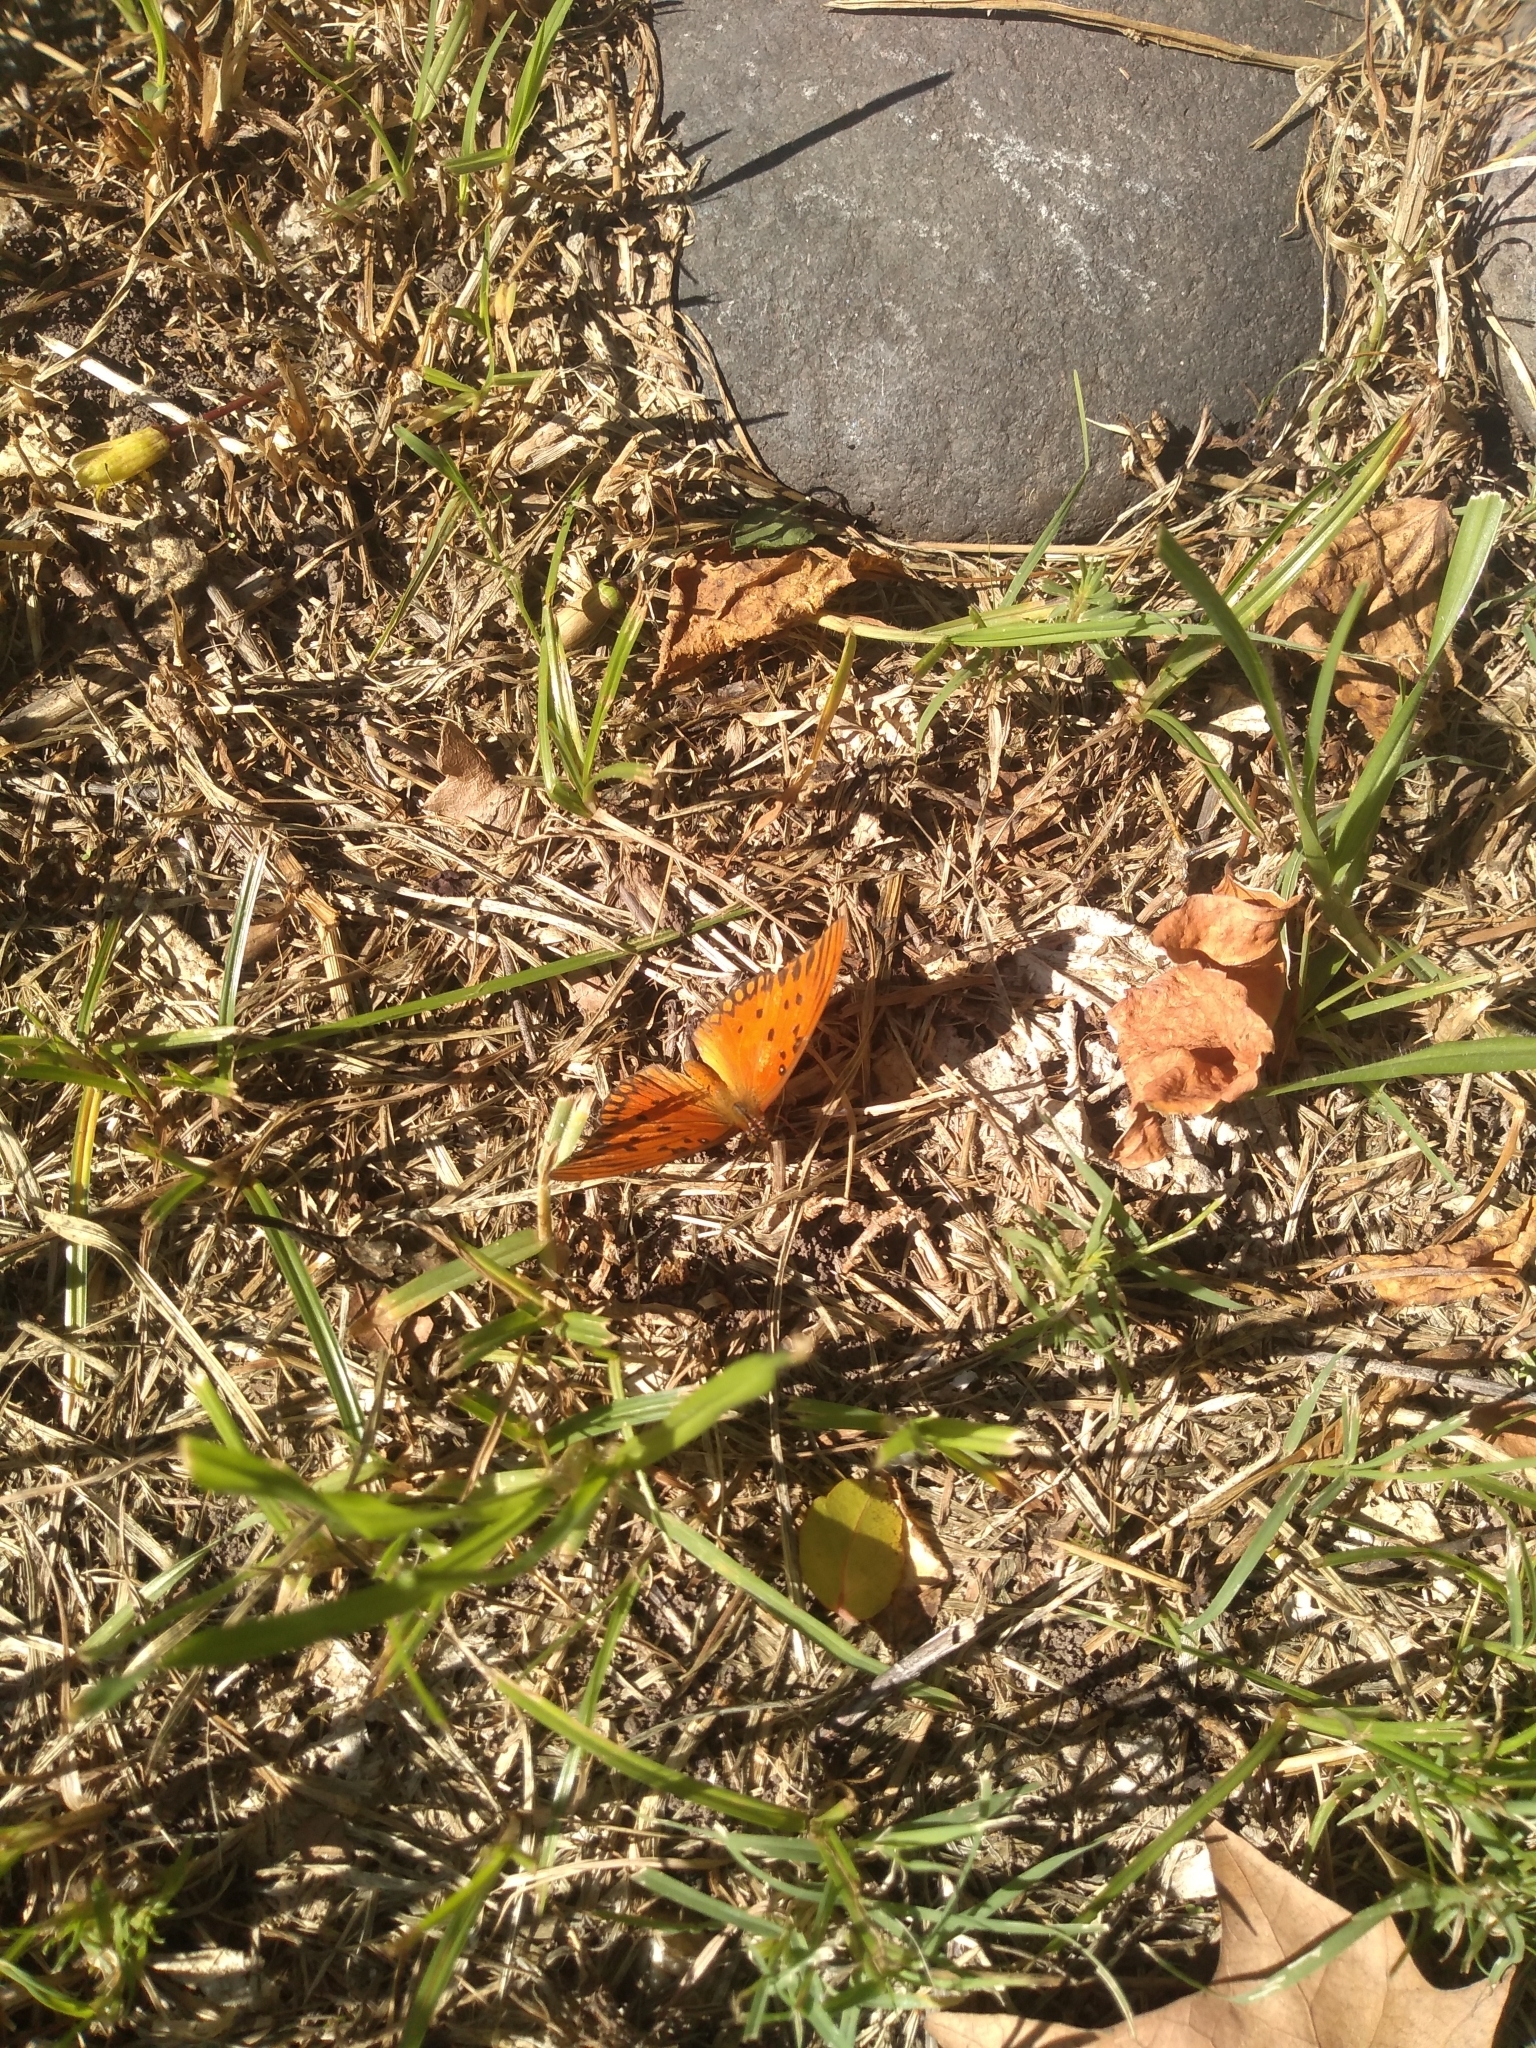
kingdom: Animalia
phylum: Arthropoda
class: Insecta
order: Lepidoptera
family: Nymphalidae
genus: Dione
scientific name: Dione vanillae
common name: Gulf fritillary
